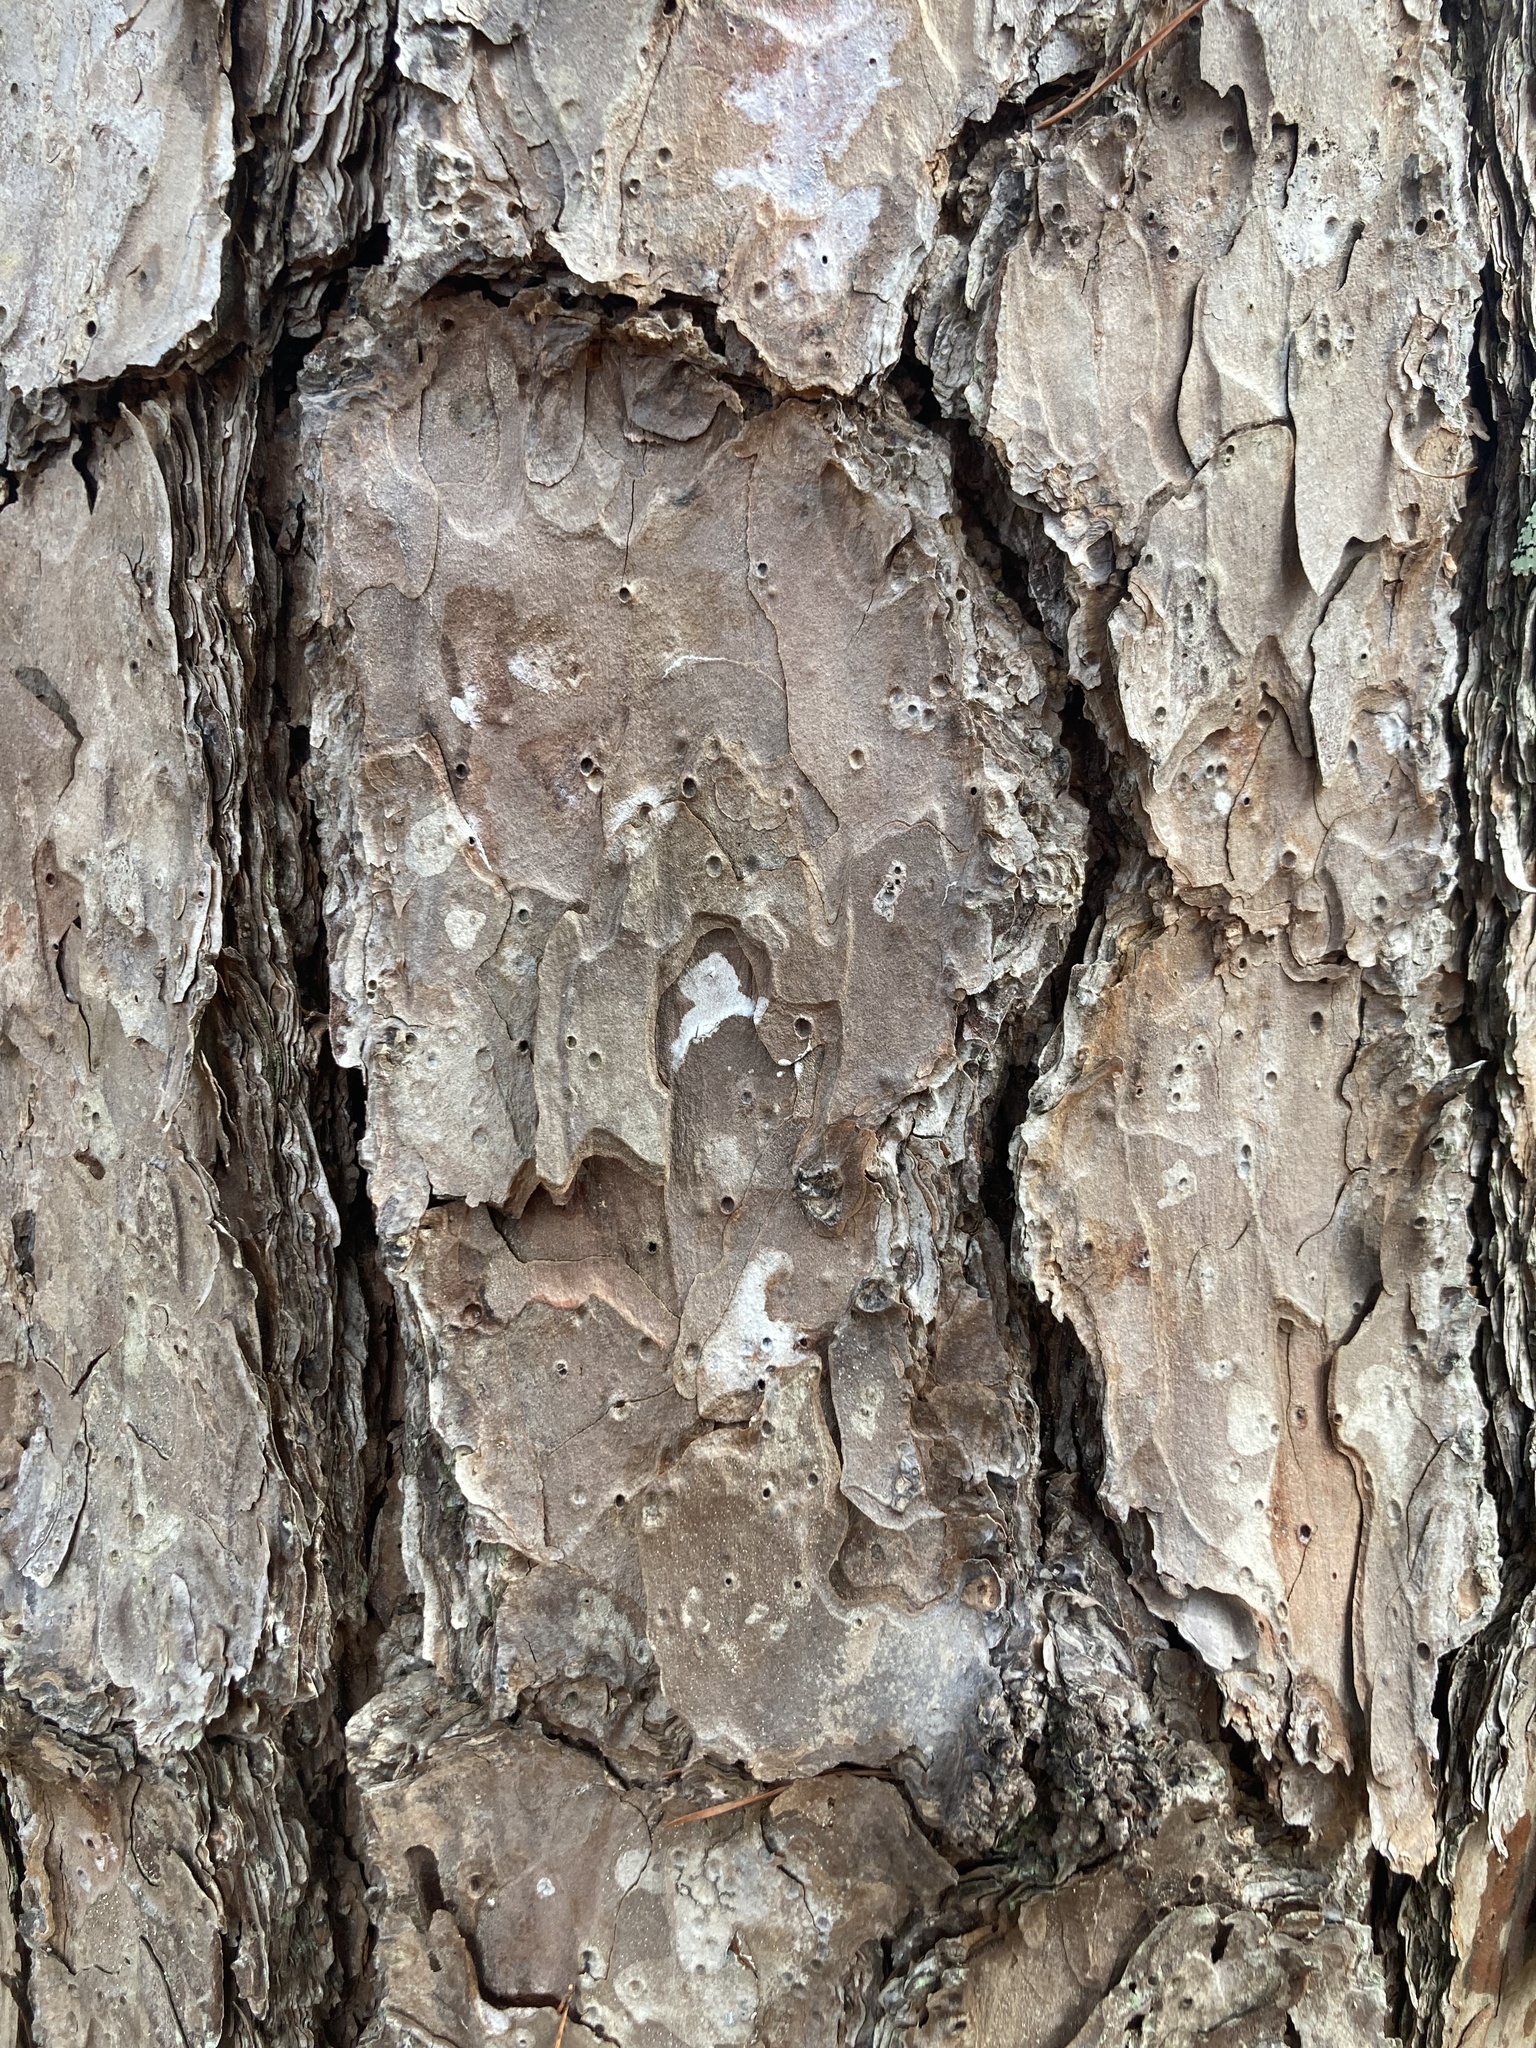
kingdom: Plantae
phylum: Tracheophyta
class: Pinopsida
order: Pinales
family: Pinaceae
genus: Pinus
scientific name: Pinus echinata
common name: Shortleaf pine
